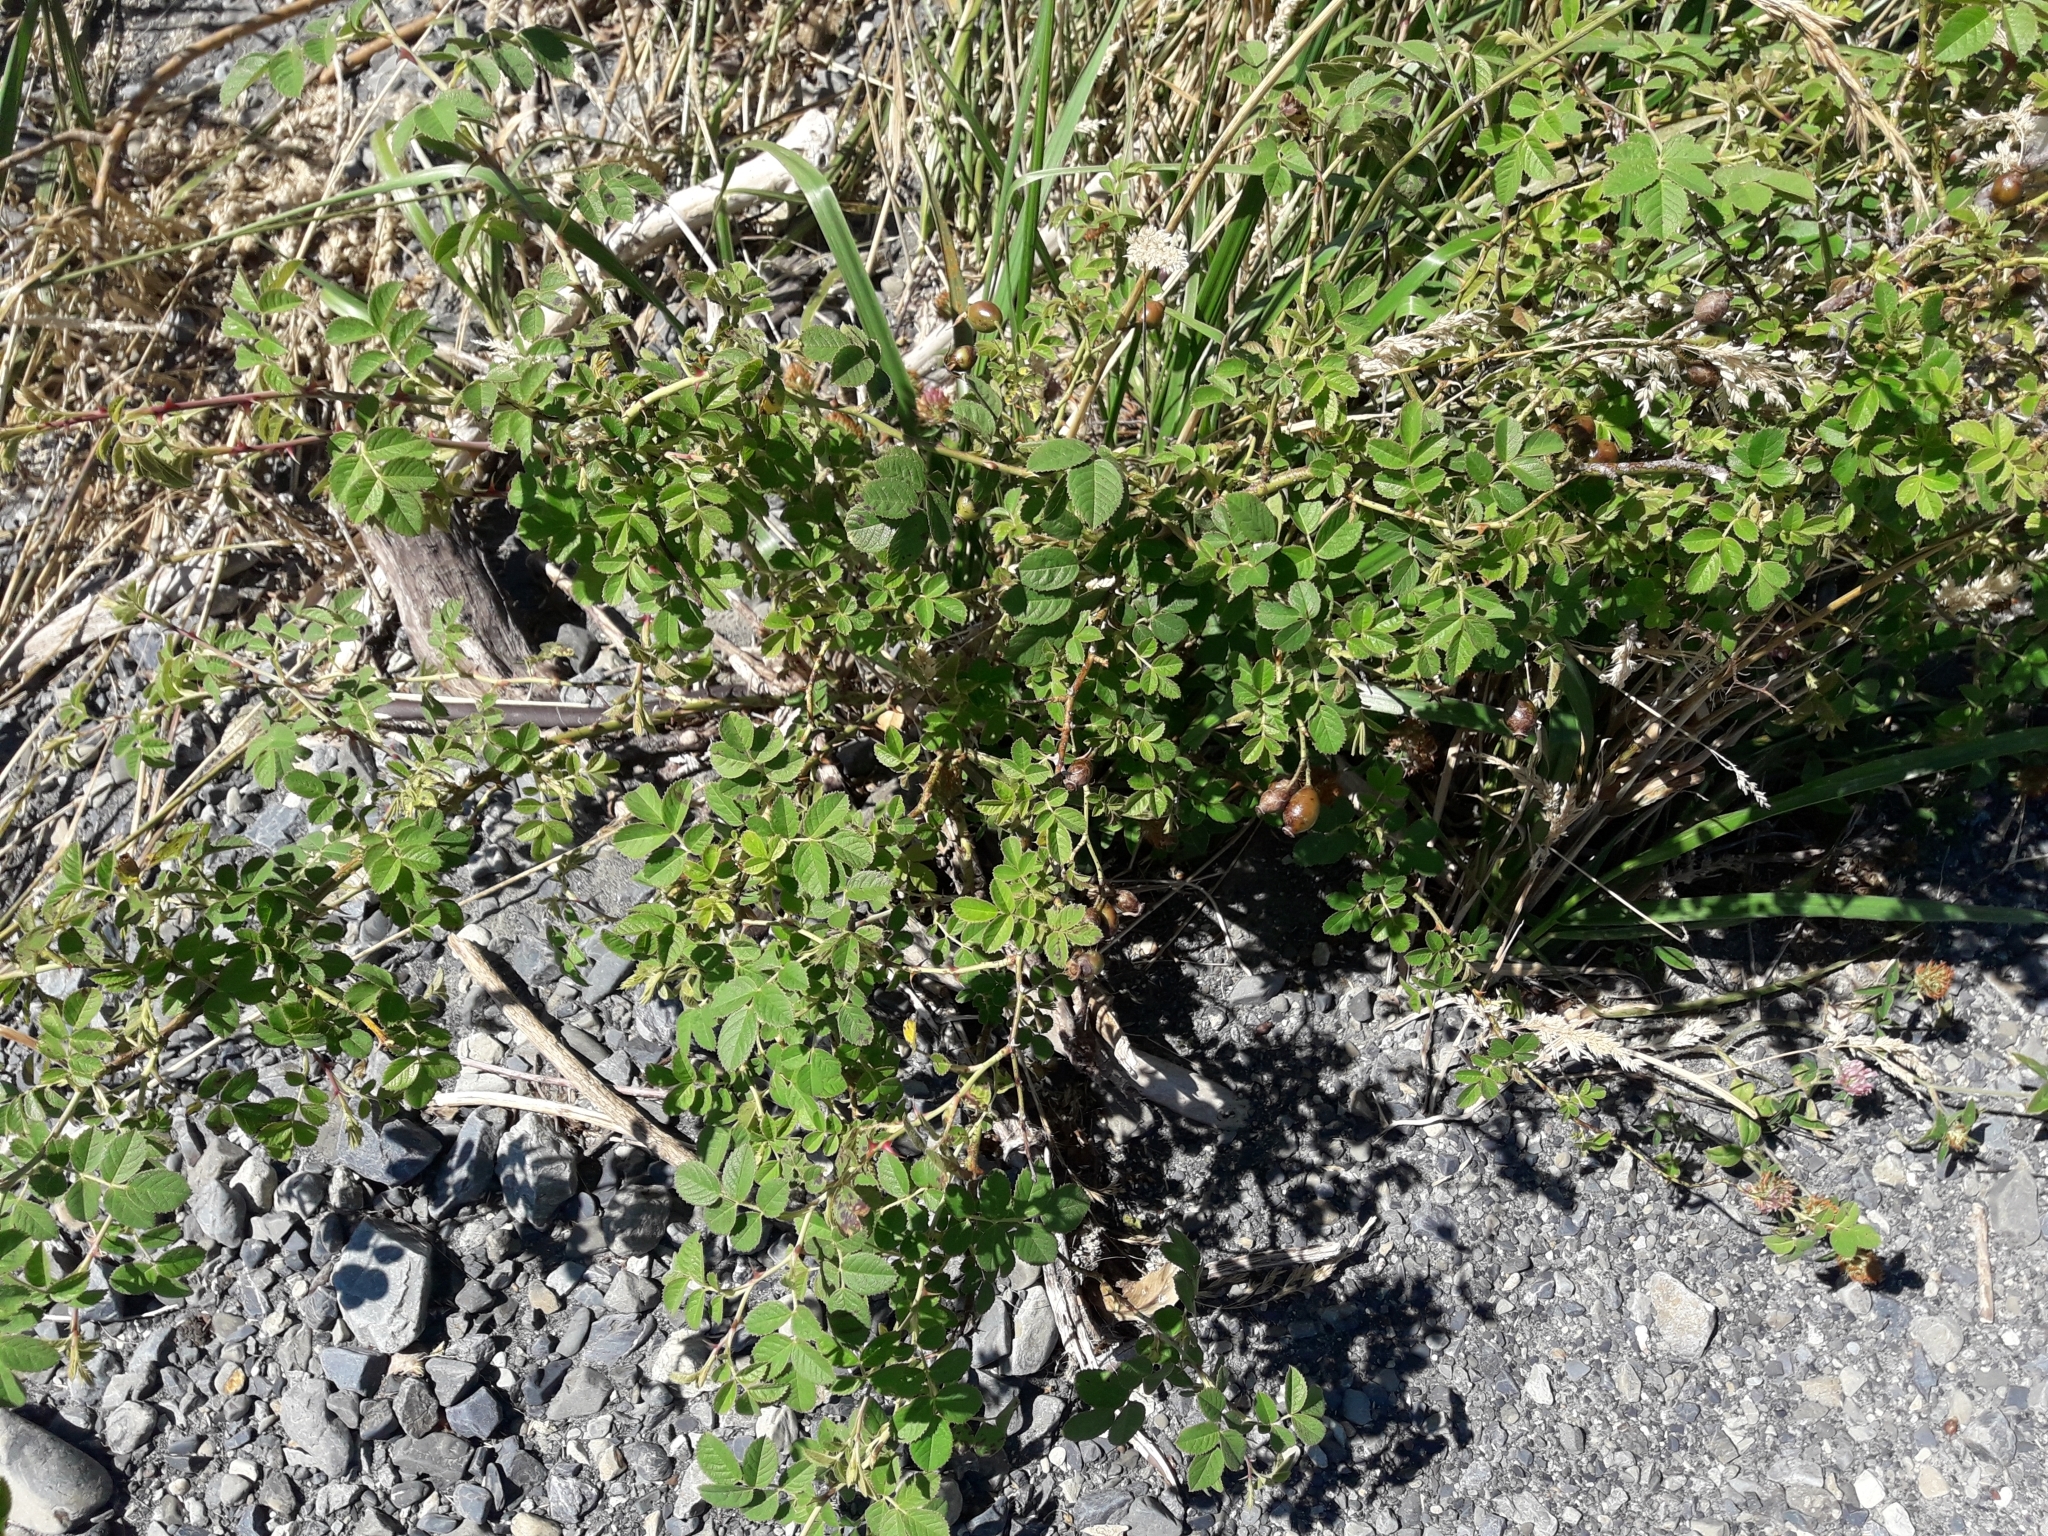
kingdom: Plantae
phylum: Tracheophyta
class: Magnoliopsida
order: Rosales
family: Rosaceae
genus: Rosa
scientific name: Rosa rubiginosa
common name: Sweet-briar
